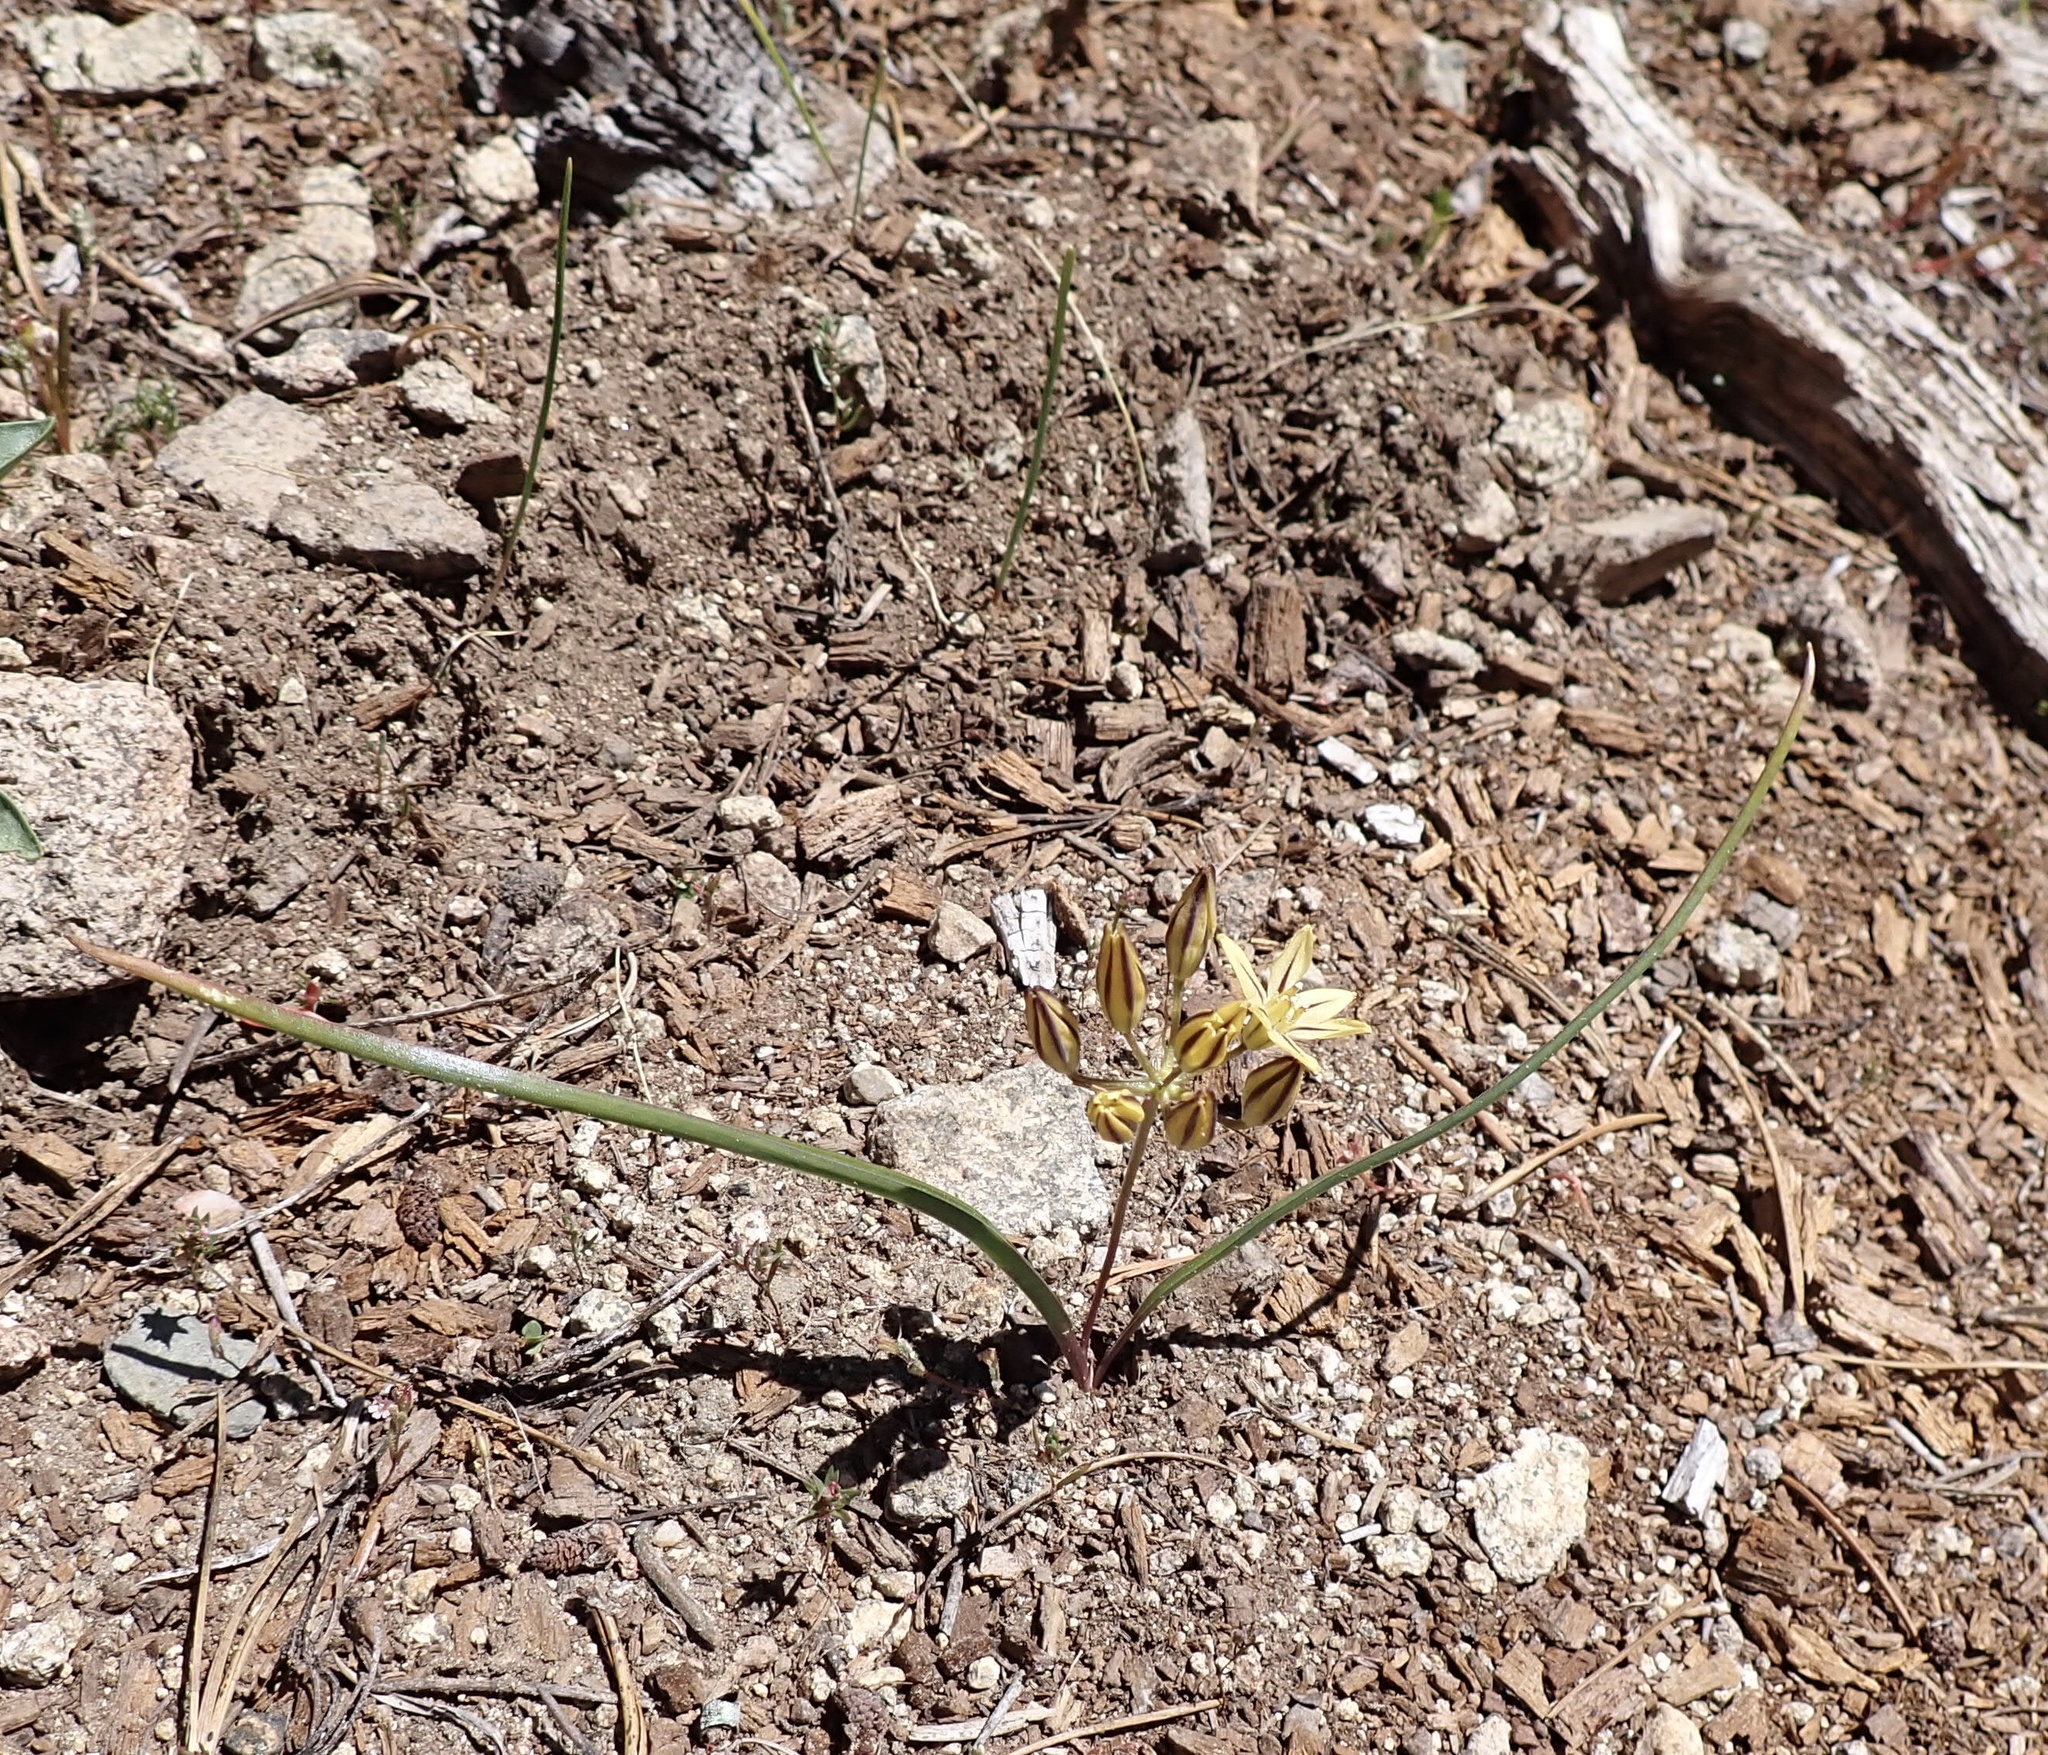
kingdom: Plantae
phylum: Tracheophyta
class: Liliopsida
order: Asparagales
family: Asparagaceae
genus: Triteleia
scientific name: Triteleia ixioides
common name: Yellow-brodiaea
